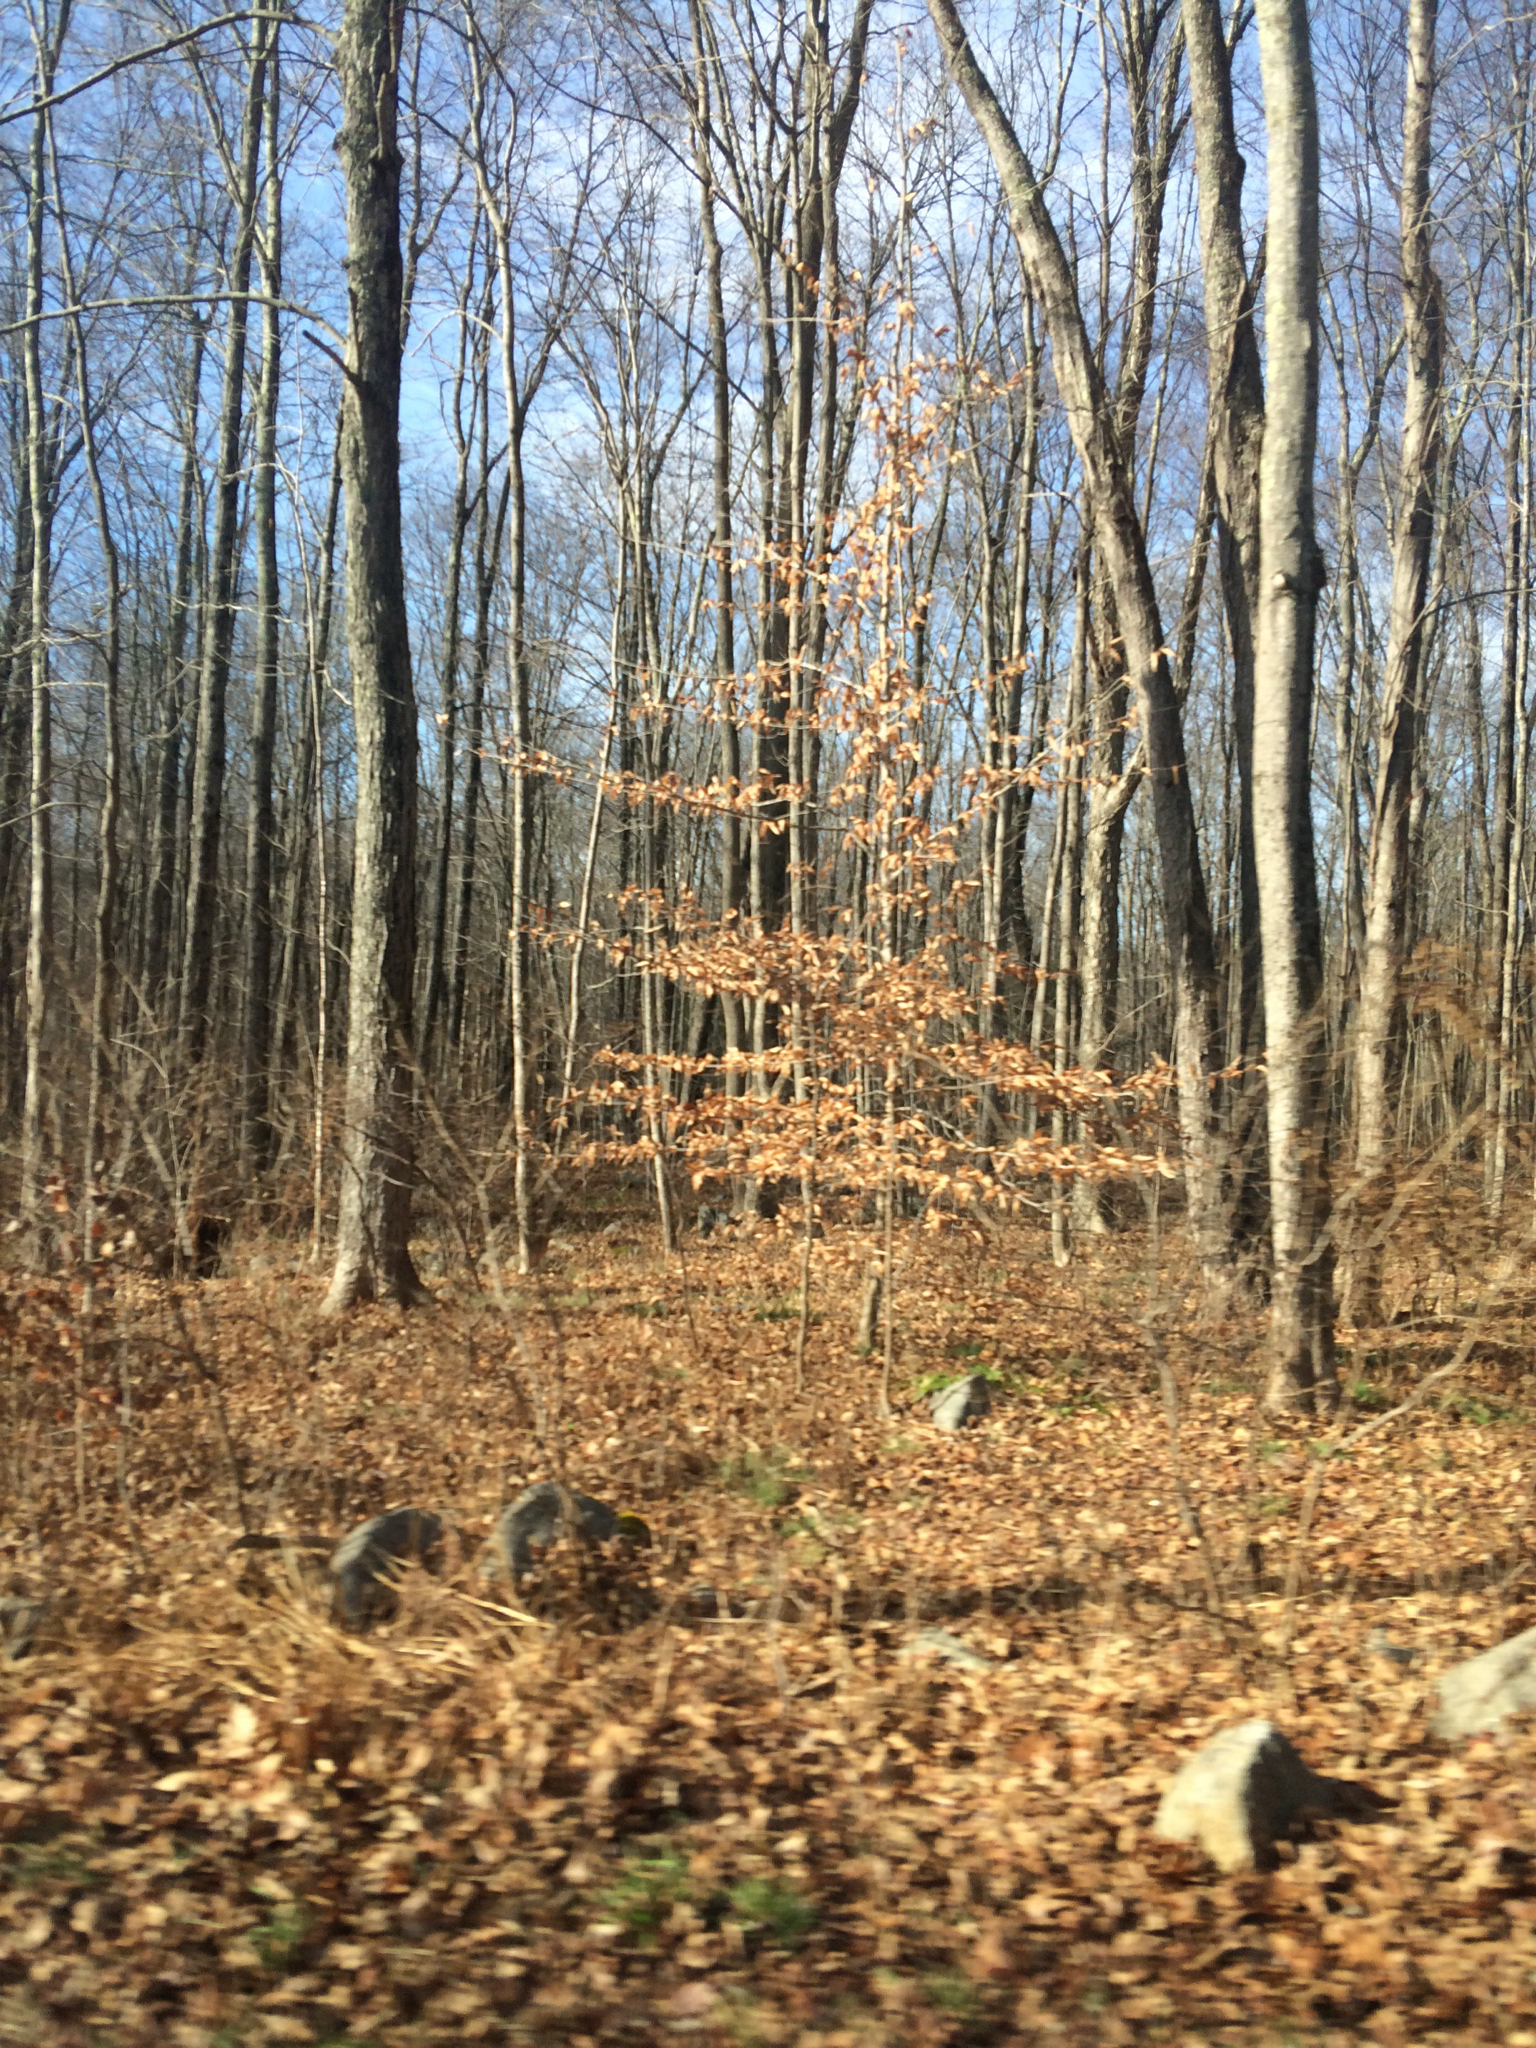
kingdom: Plantae
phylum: Tracheophyta
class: Magnoliopsida
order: Fagales
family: Fagaceae
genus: Fagus
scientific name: Fagus grandifolia
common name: American beech
